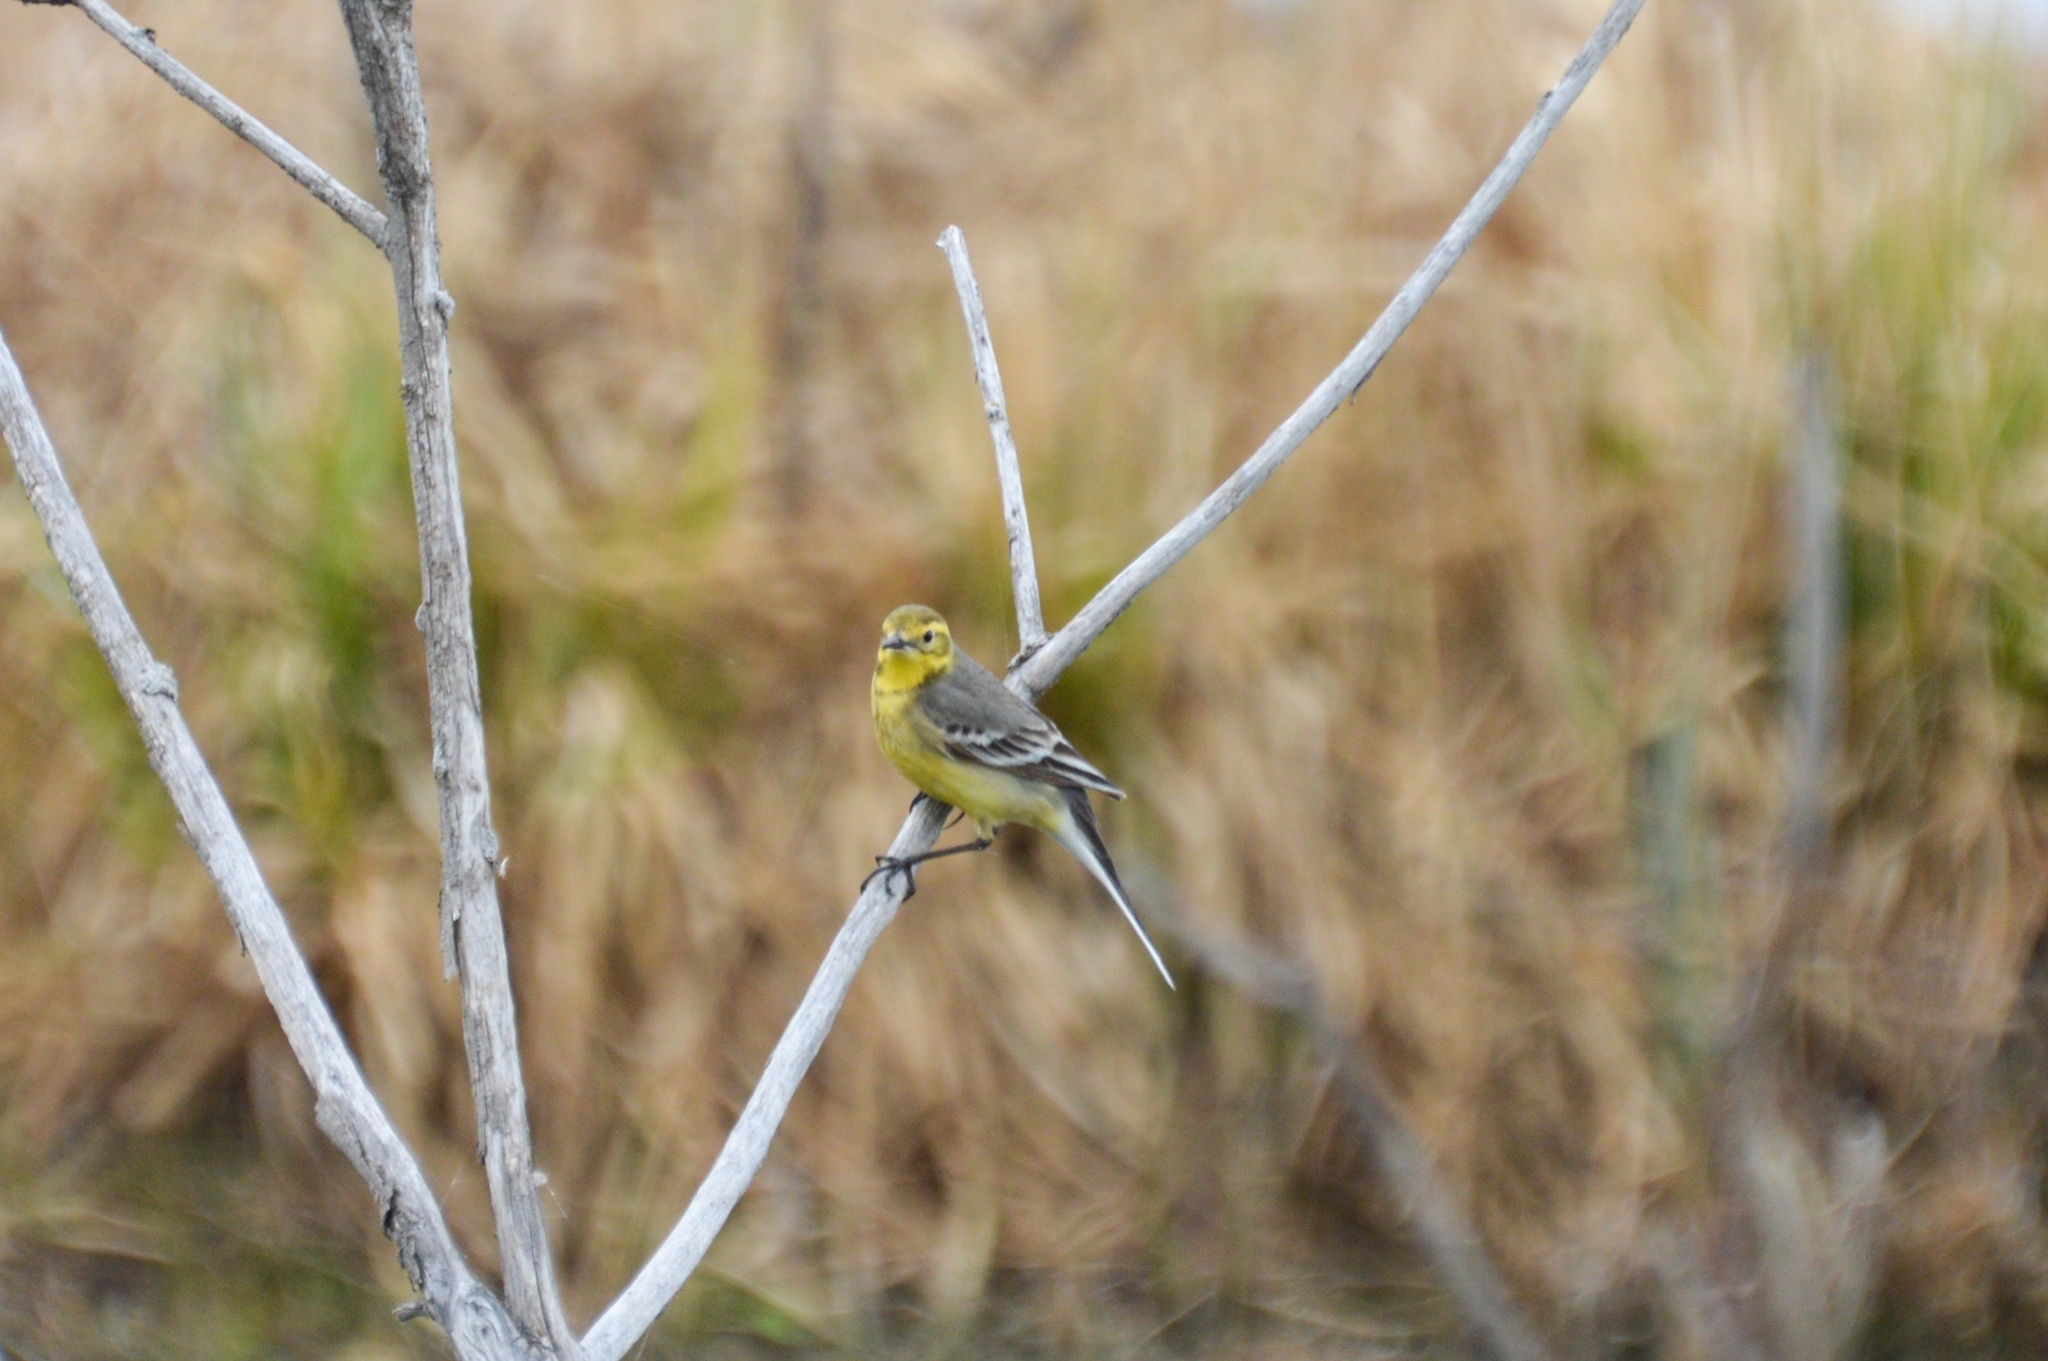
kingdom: Animalia
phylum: Chordata
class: Aves
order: Passeriformes
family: Motacillidae
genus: Motacilla
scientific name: Motacilla citreola
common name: Citrine wagtail
